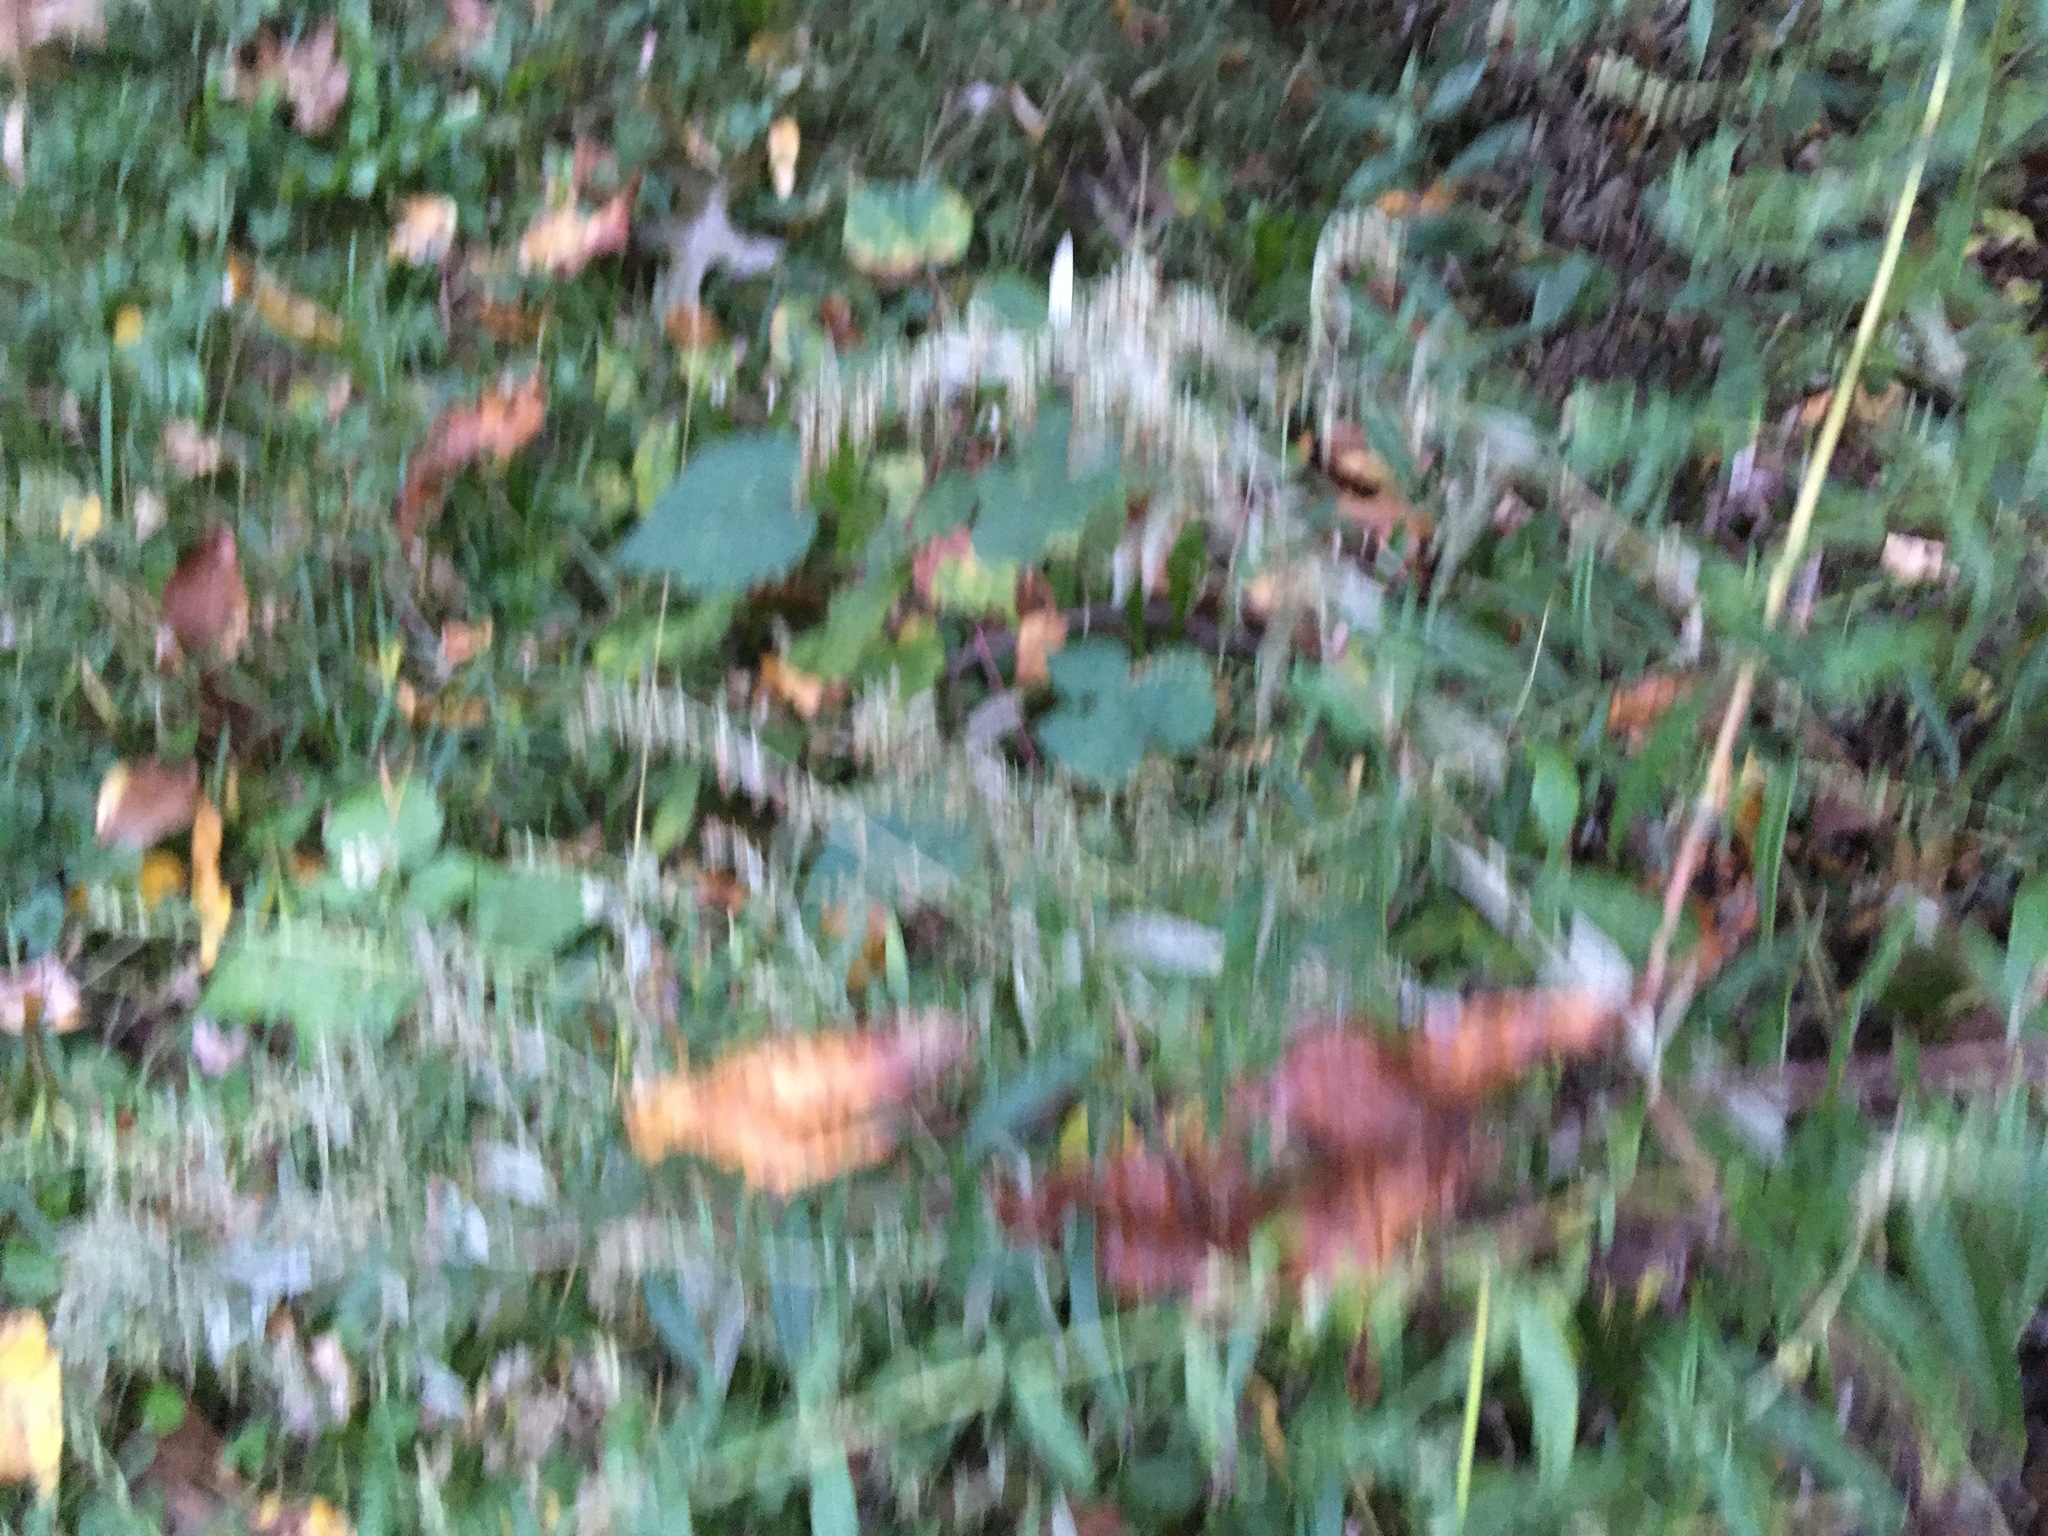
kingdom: Plantae
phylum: Tracheophyta
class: Magnoliopsida
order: Asterales
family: Asteraceae
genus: Artemisia
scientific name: Artemisia vulgaris
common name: Mugwort
